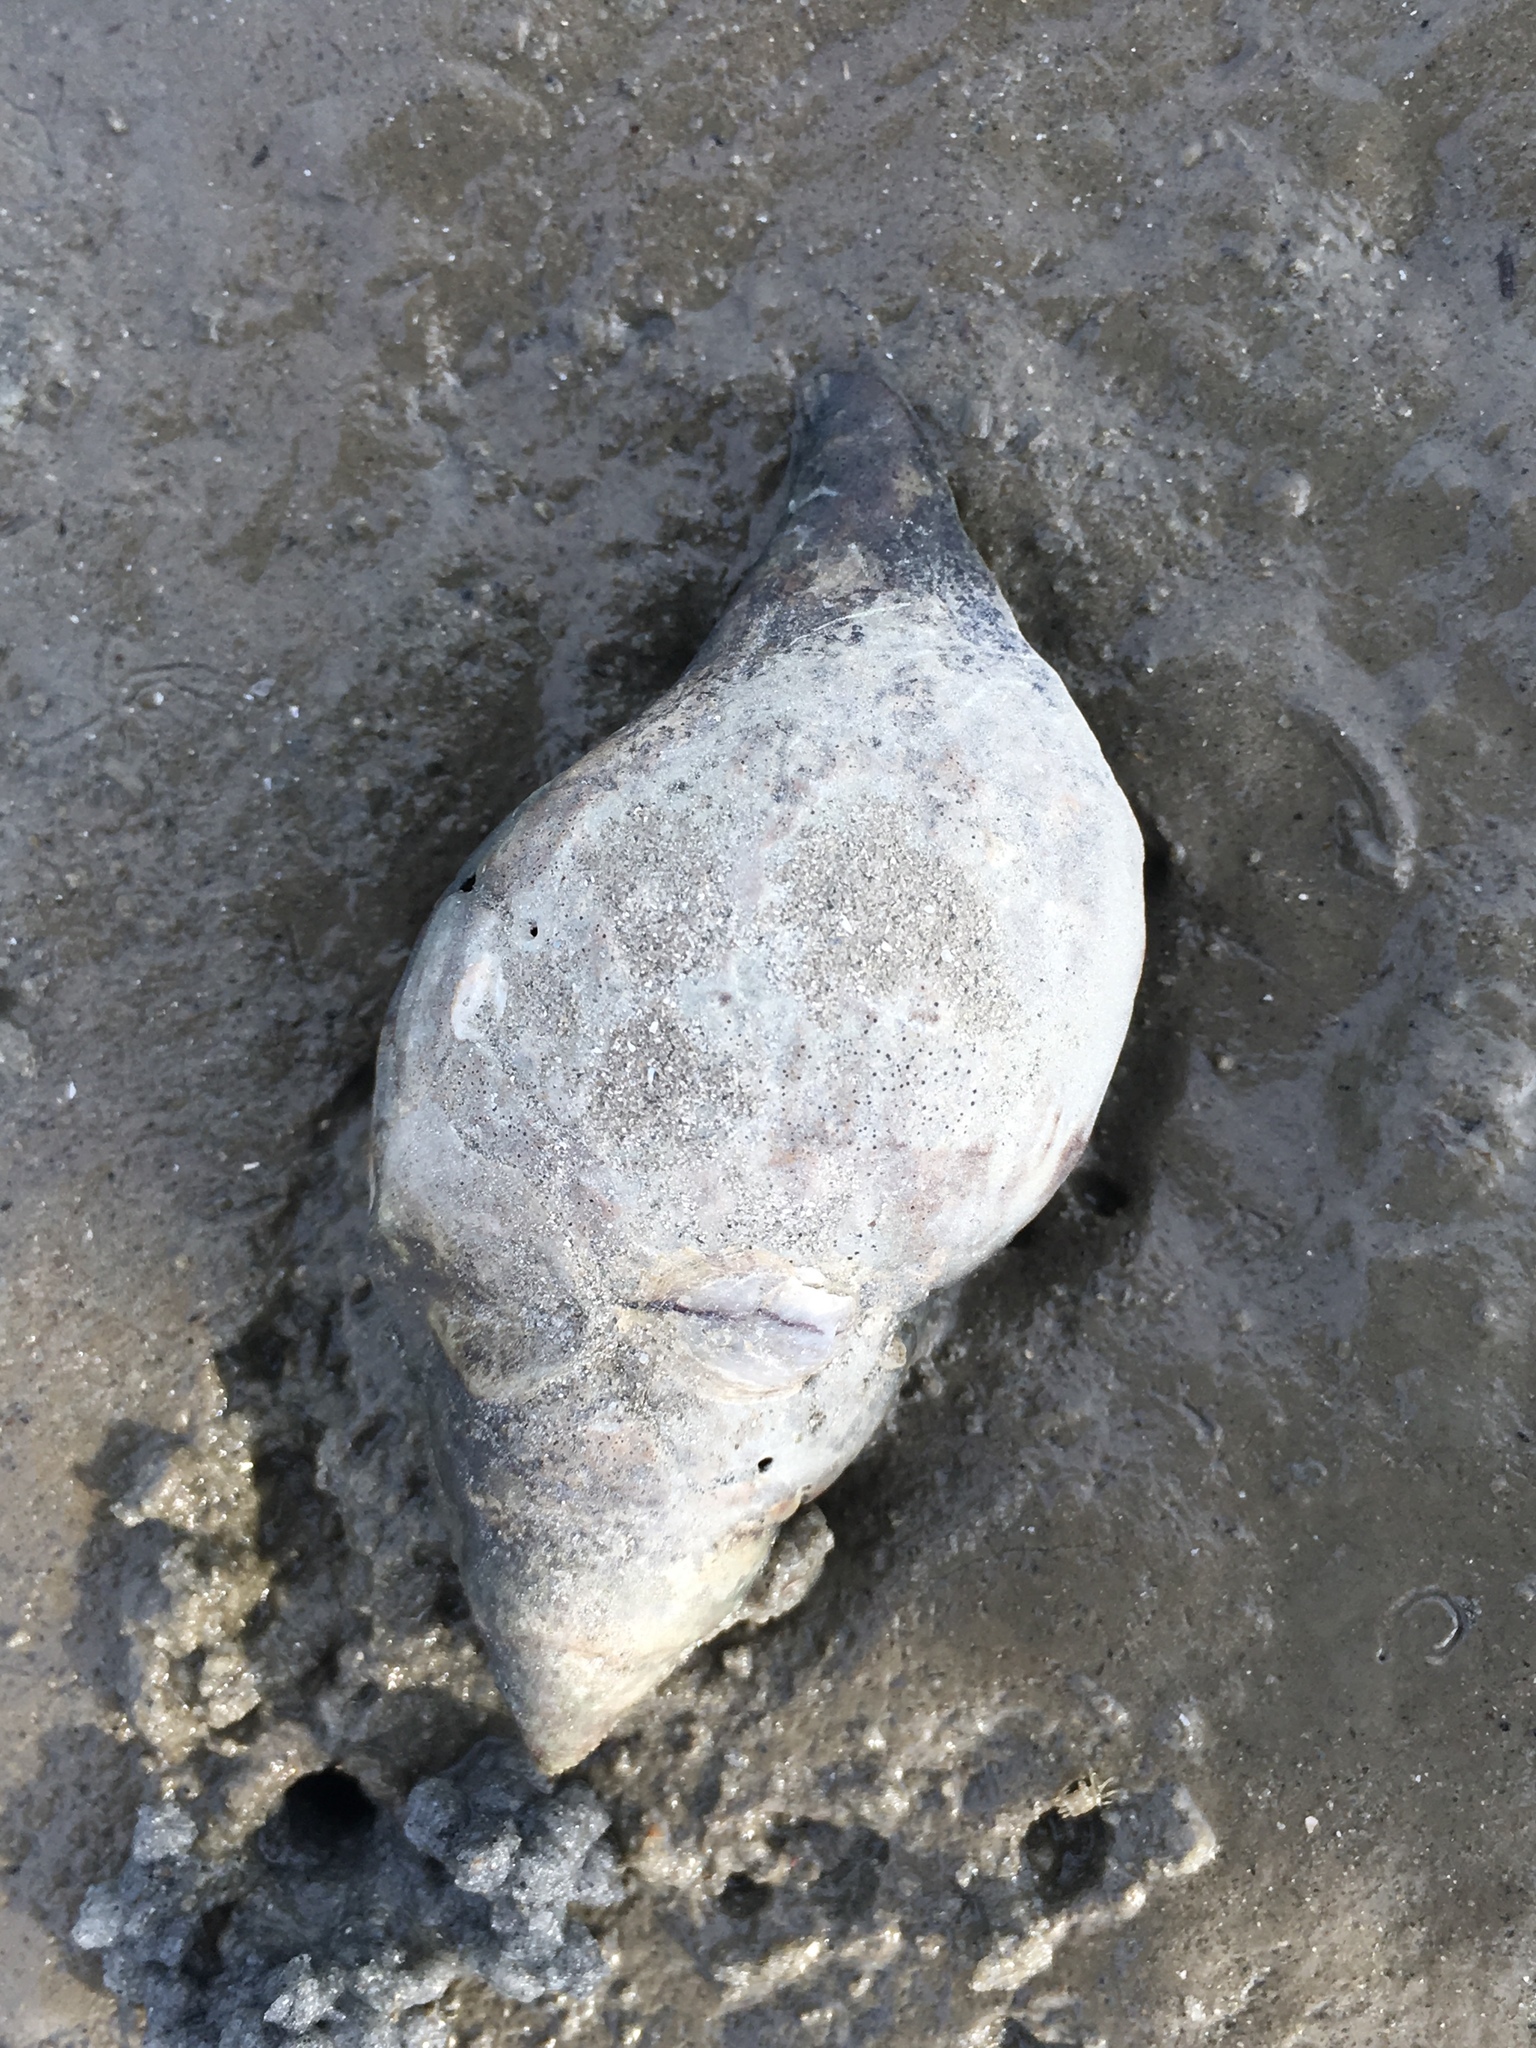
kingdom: Animalia
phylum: Mollusca
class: Gastropoda
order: Neogastropoda
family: Fasciolariidae
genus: Cinctura
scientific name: Cinctura hunteria
